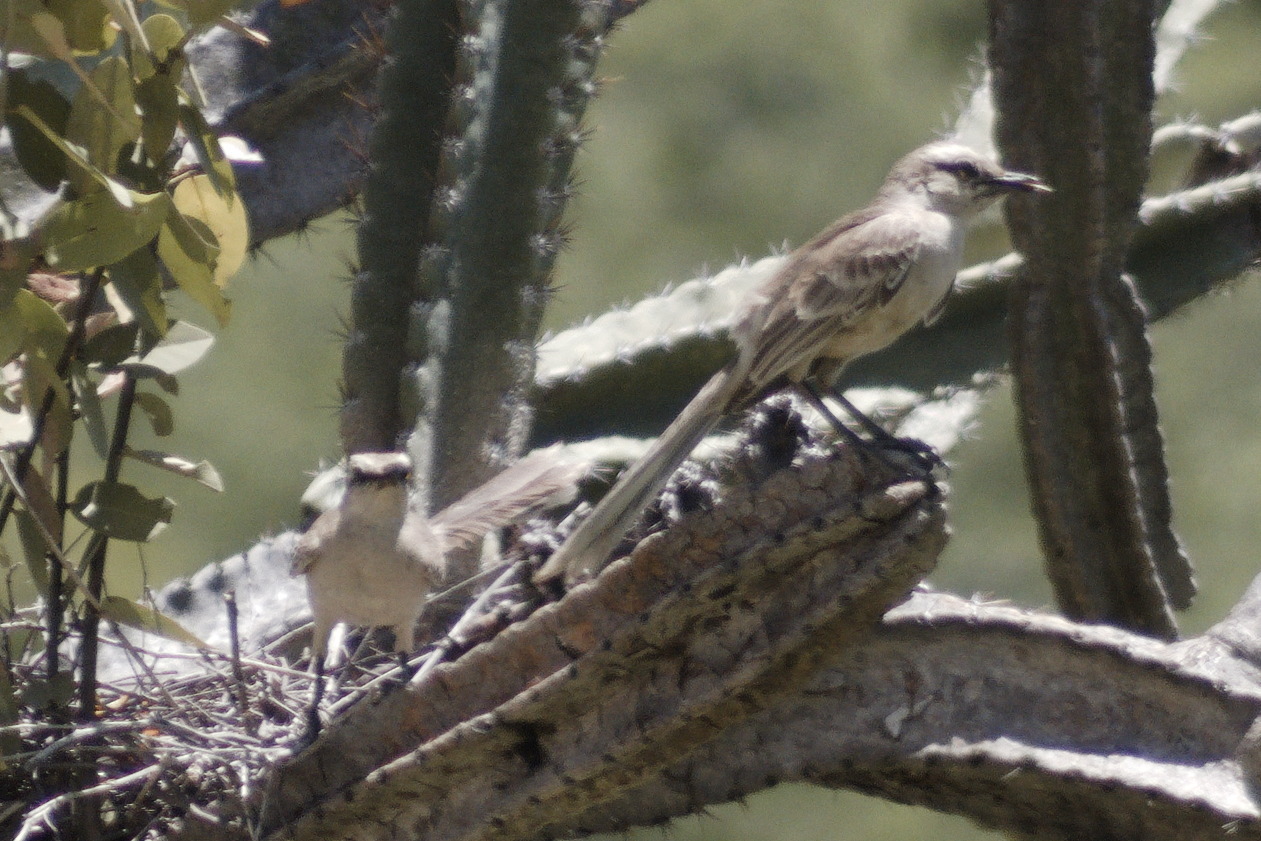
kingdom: Animalia
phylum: Chordata
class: Aves
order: Passeriformes
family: Mimidae
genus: Mimus
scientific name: Mimus saturninus
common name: Chalk-browed mockingbird
